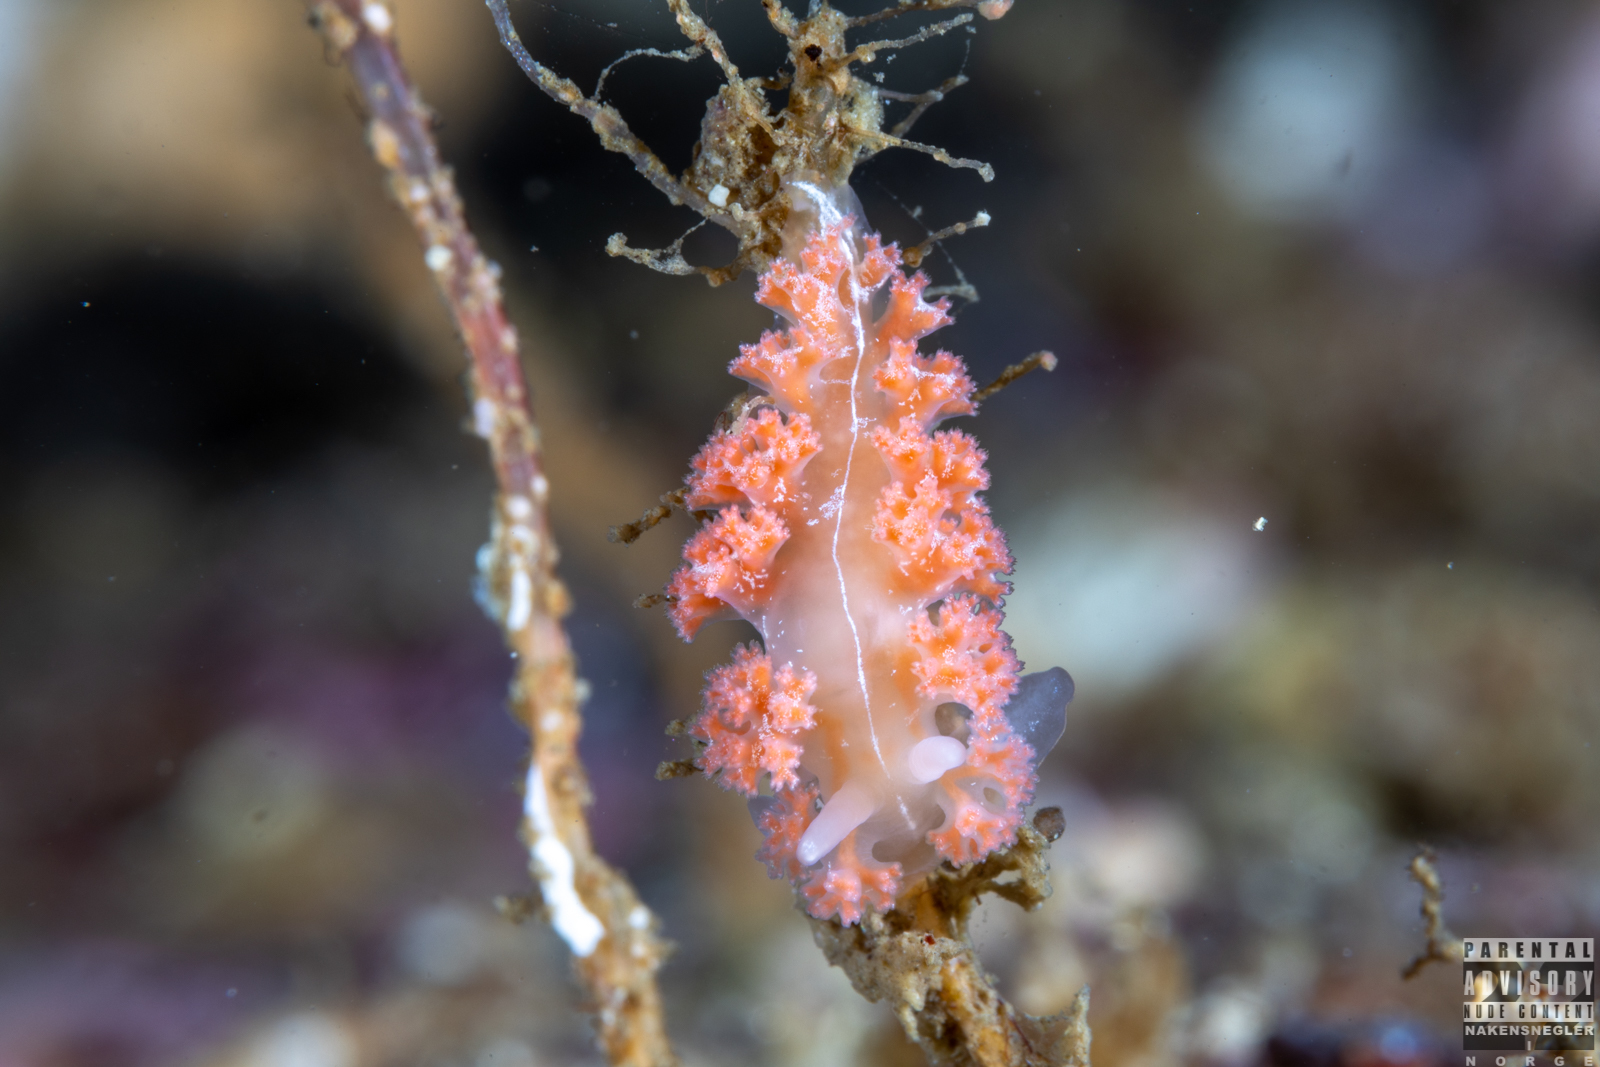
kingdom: Animalia
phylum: Mollusca
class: Gastropoda
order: Nudibranchia
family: Heroidae
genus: Hero
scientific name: Hero formosa
